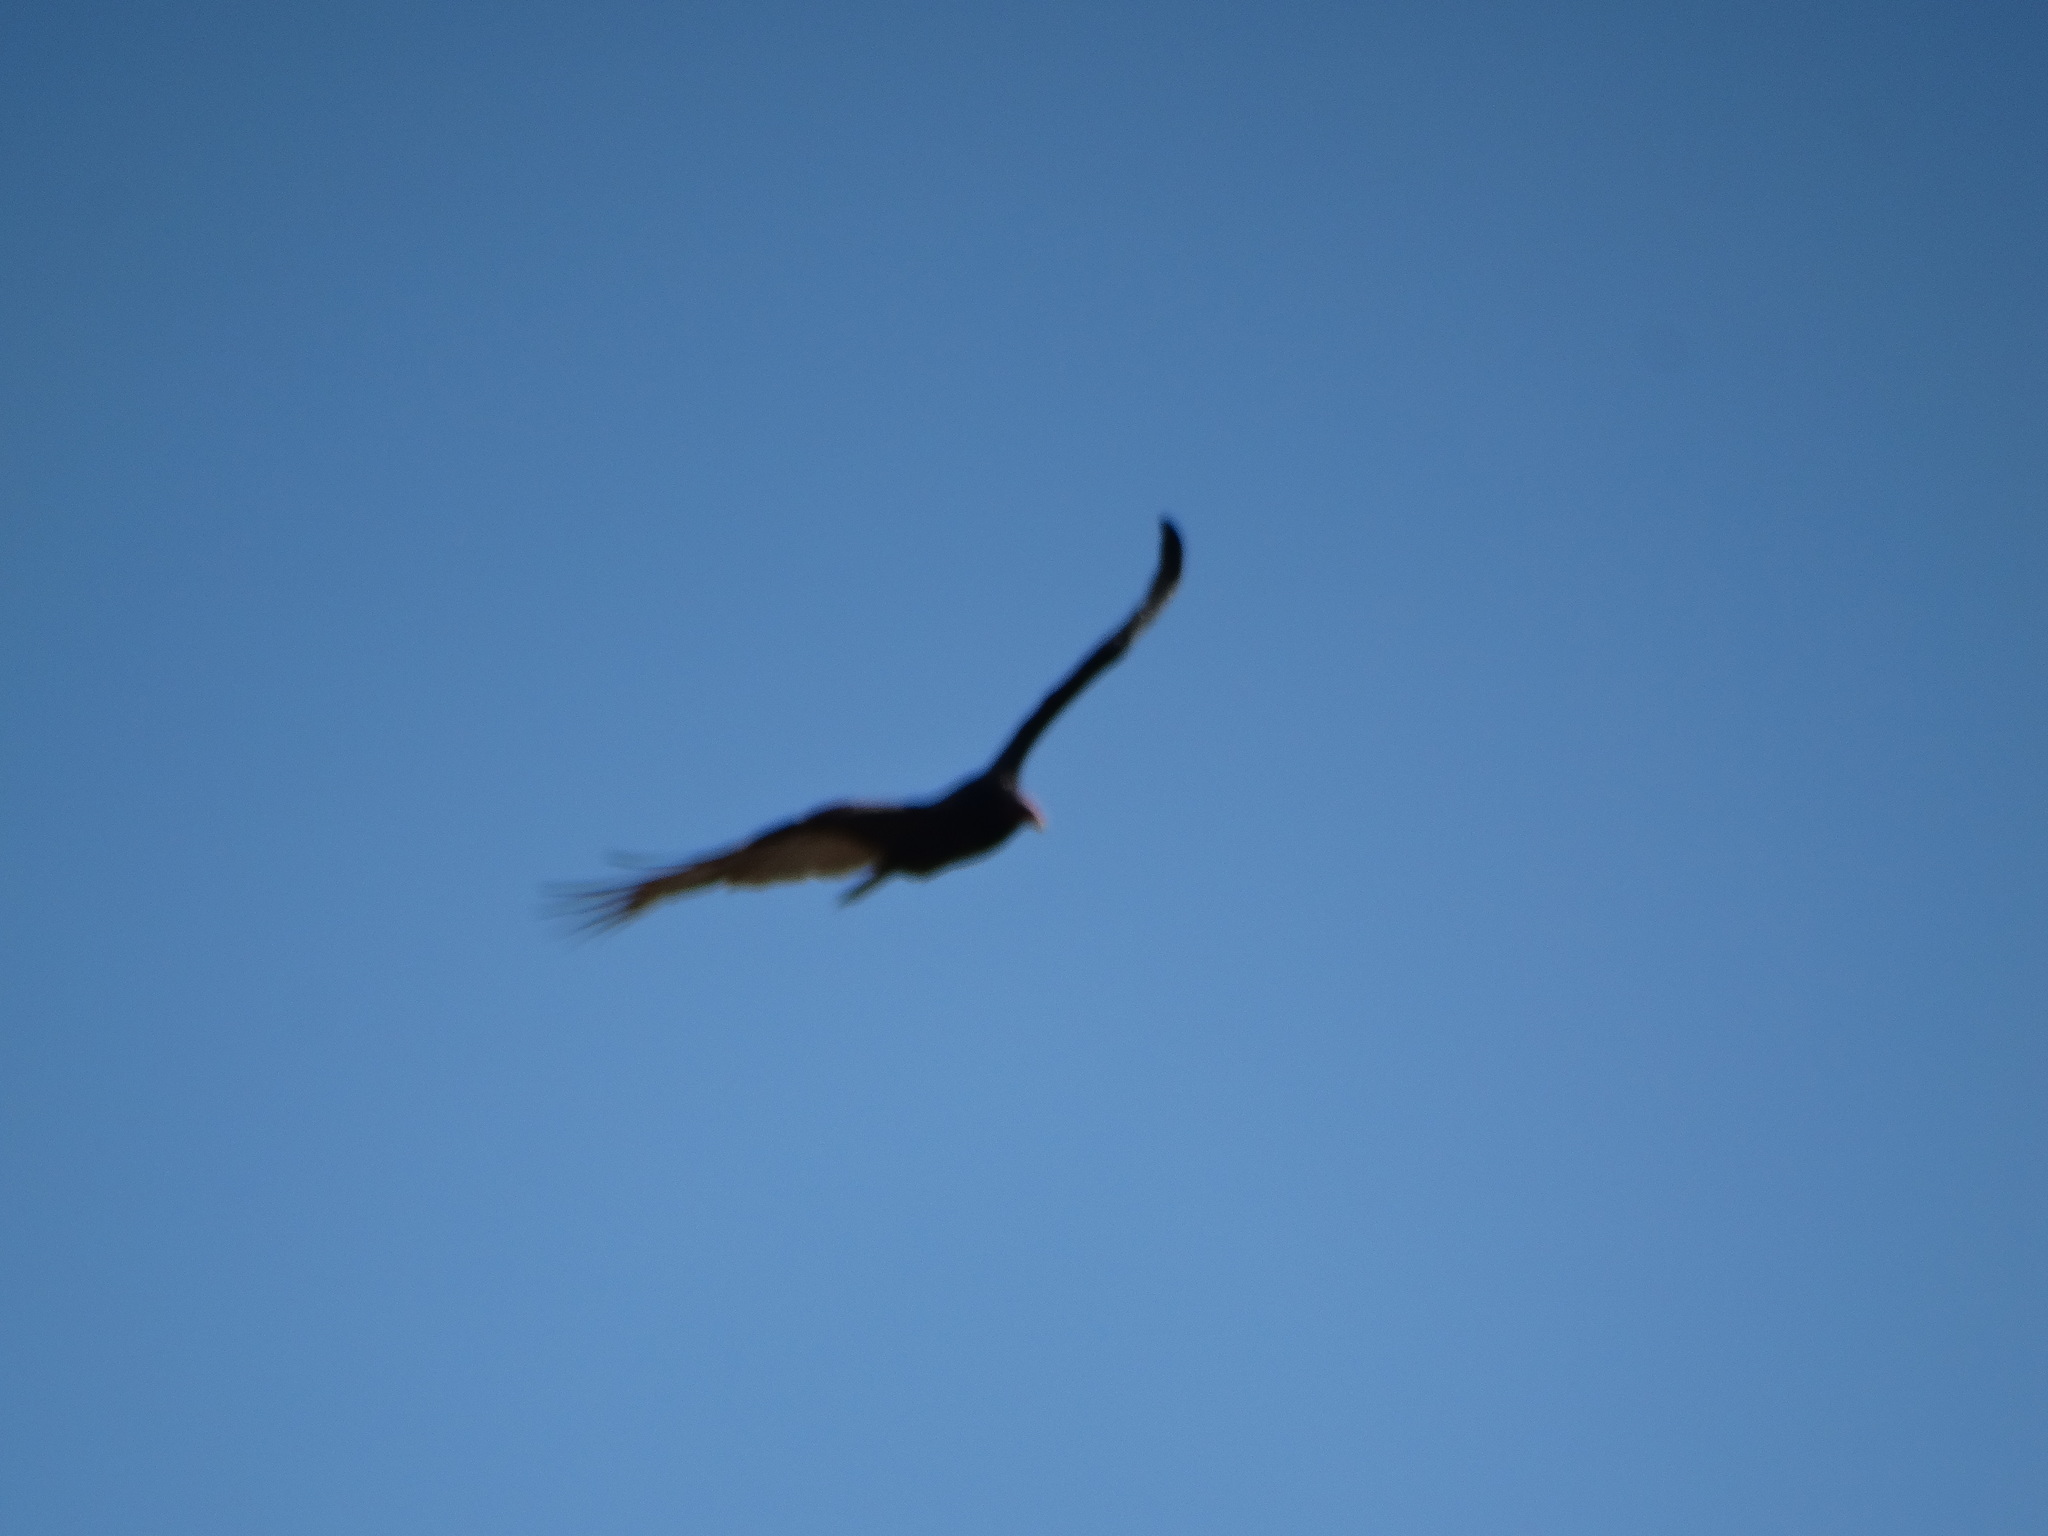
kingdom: Animalia
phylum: Chordata
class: Aves
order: Accipitriformes
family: Cathartidae
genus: Cathartes
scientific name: Cathartes aura
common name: Turkey vulture
